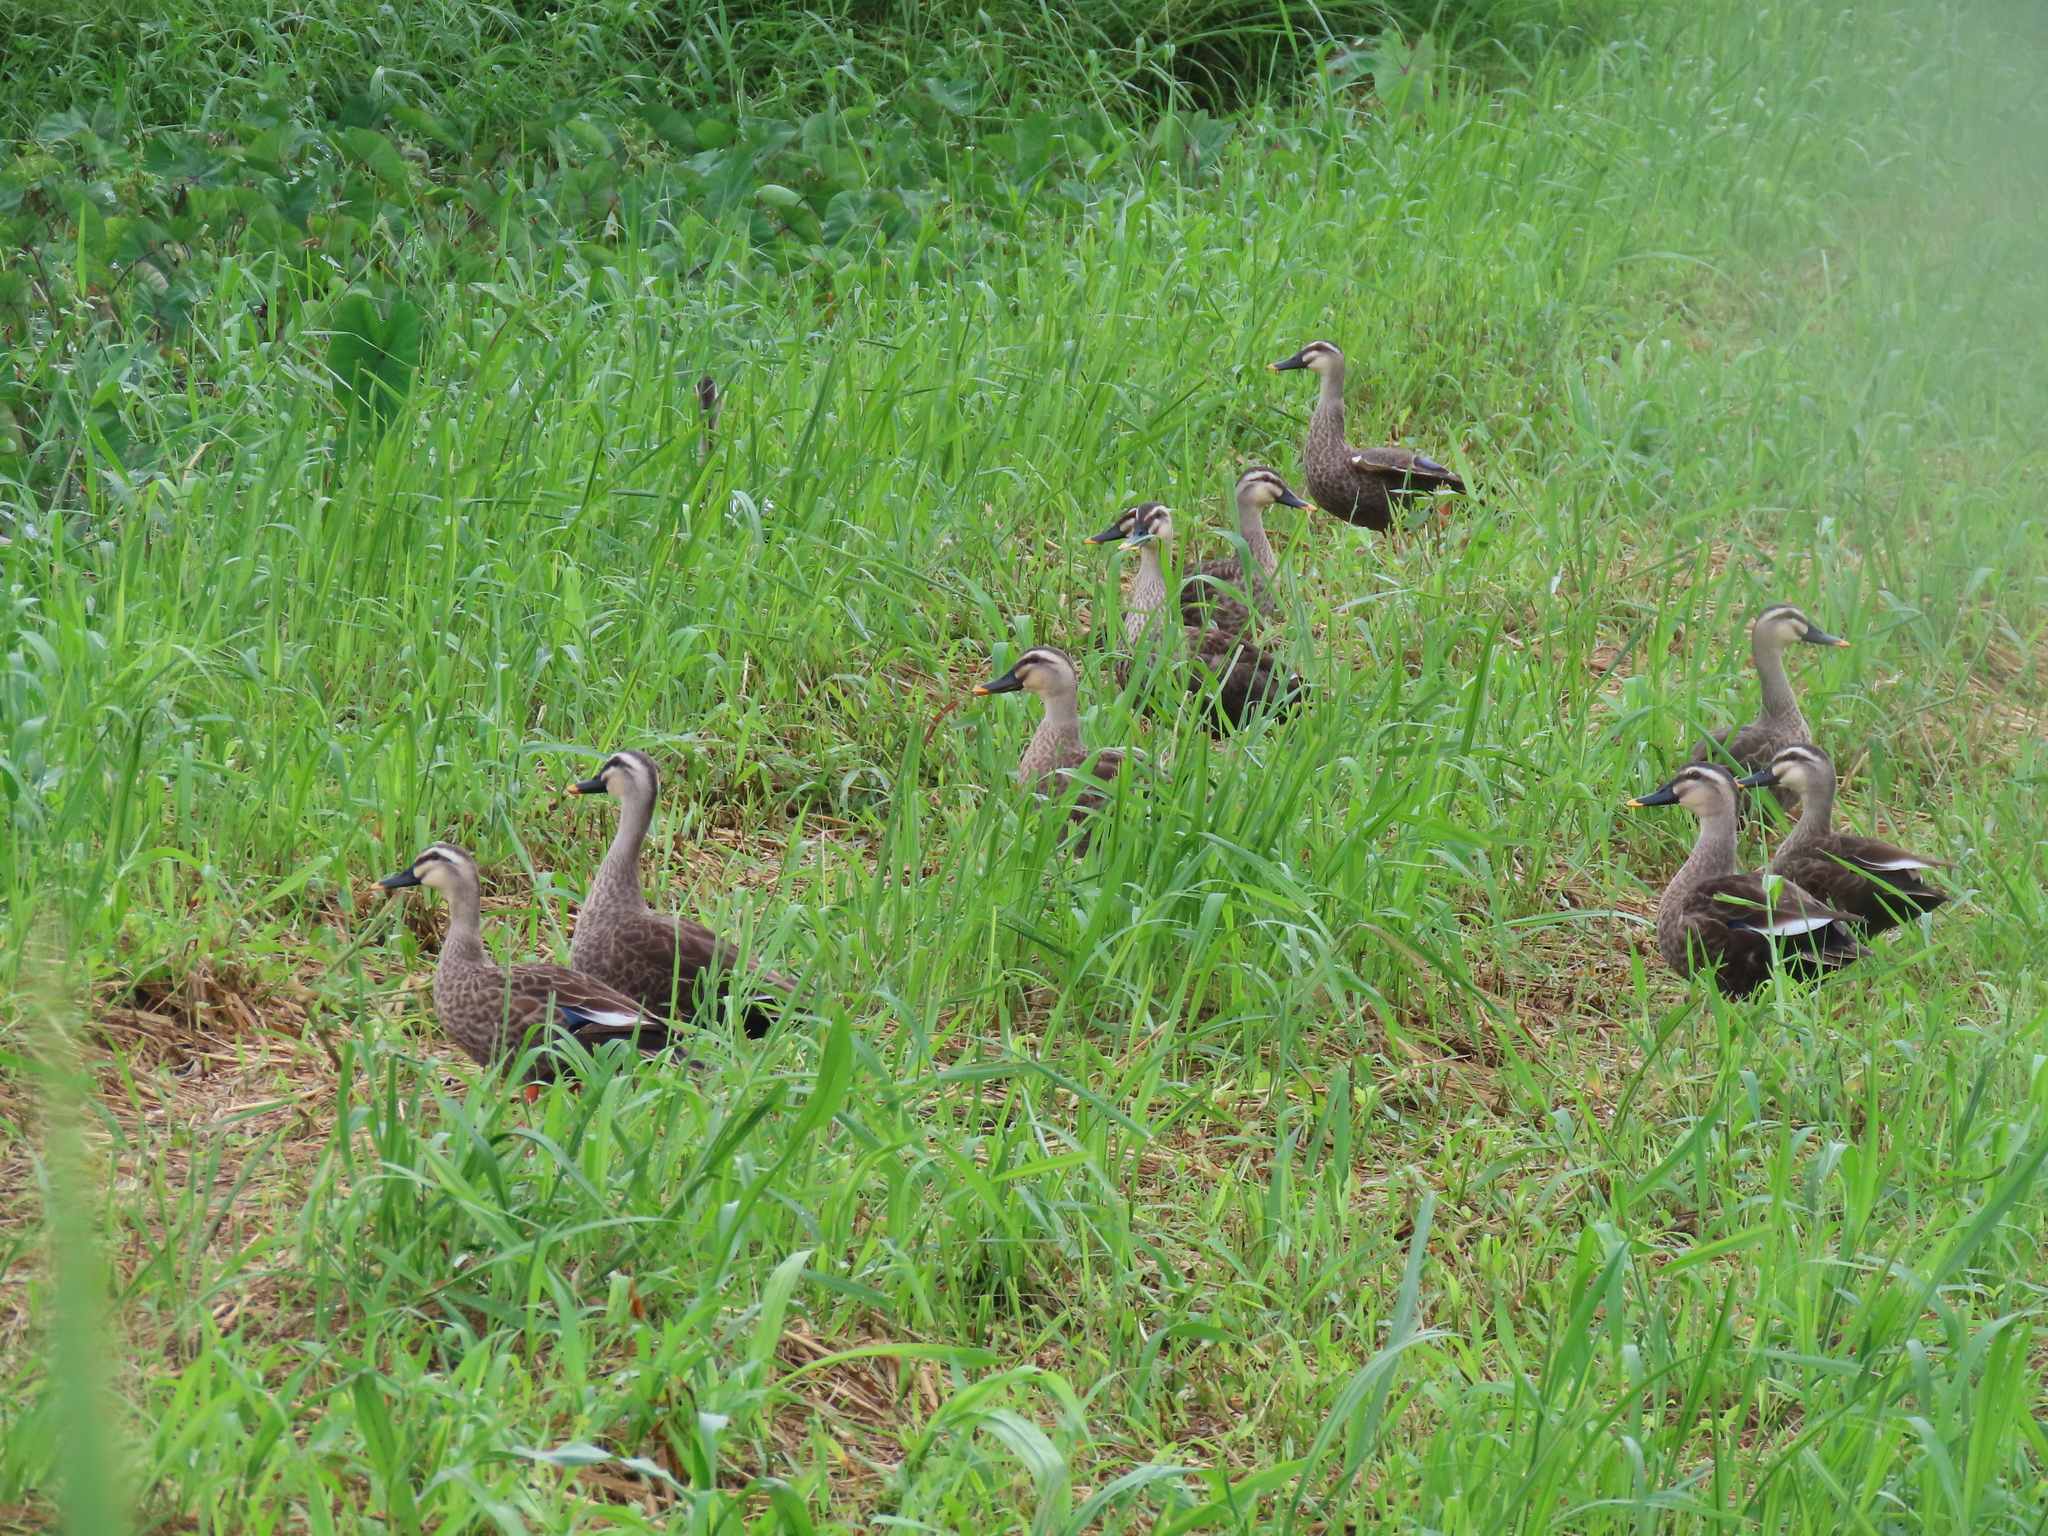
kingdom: Animalia
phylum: Chordata
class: Aves
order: Anseriformes
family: Anatidae
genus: Anas
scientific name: Anas zonorhyncha
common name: Eastern spot-billed duck
